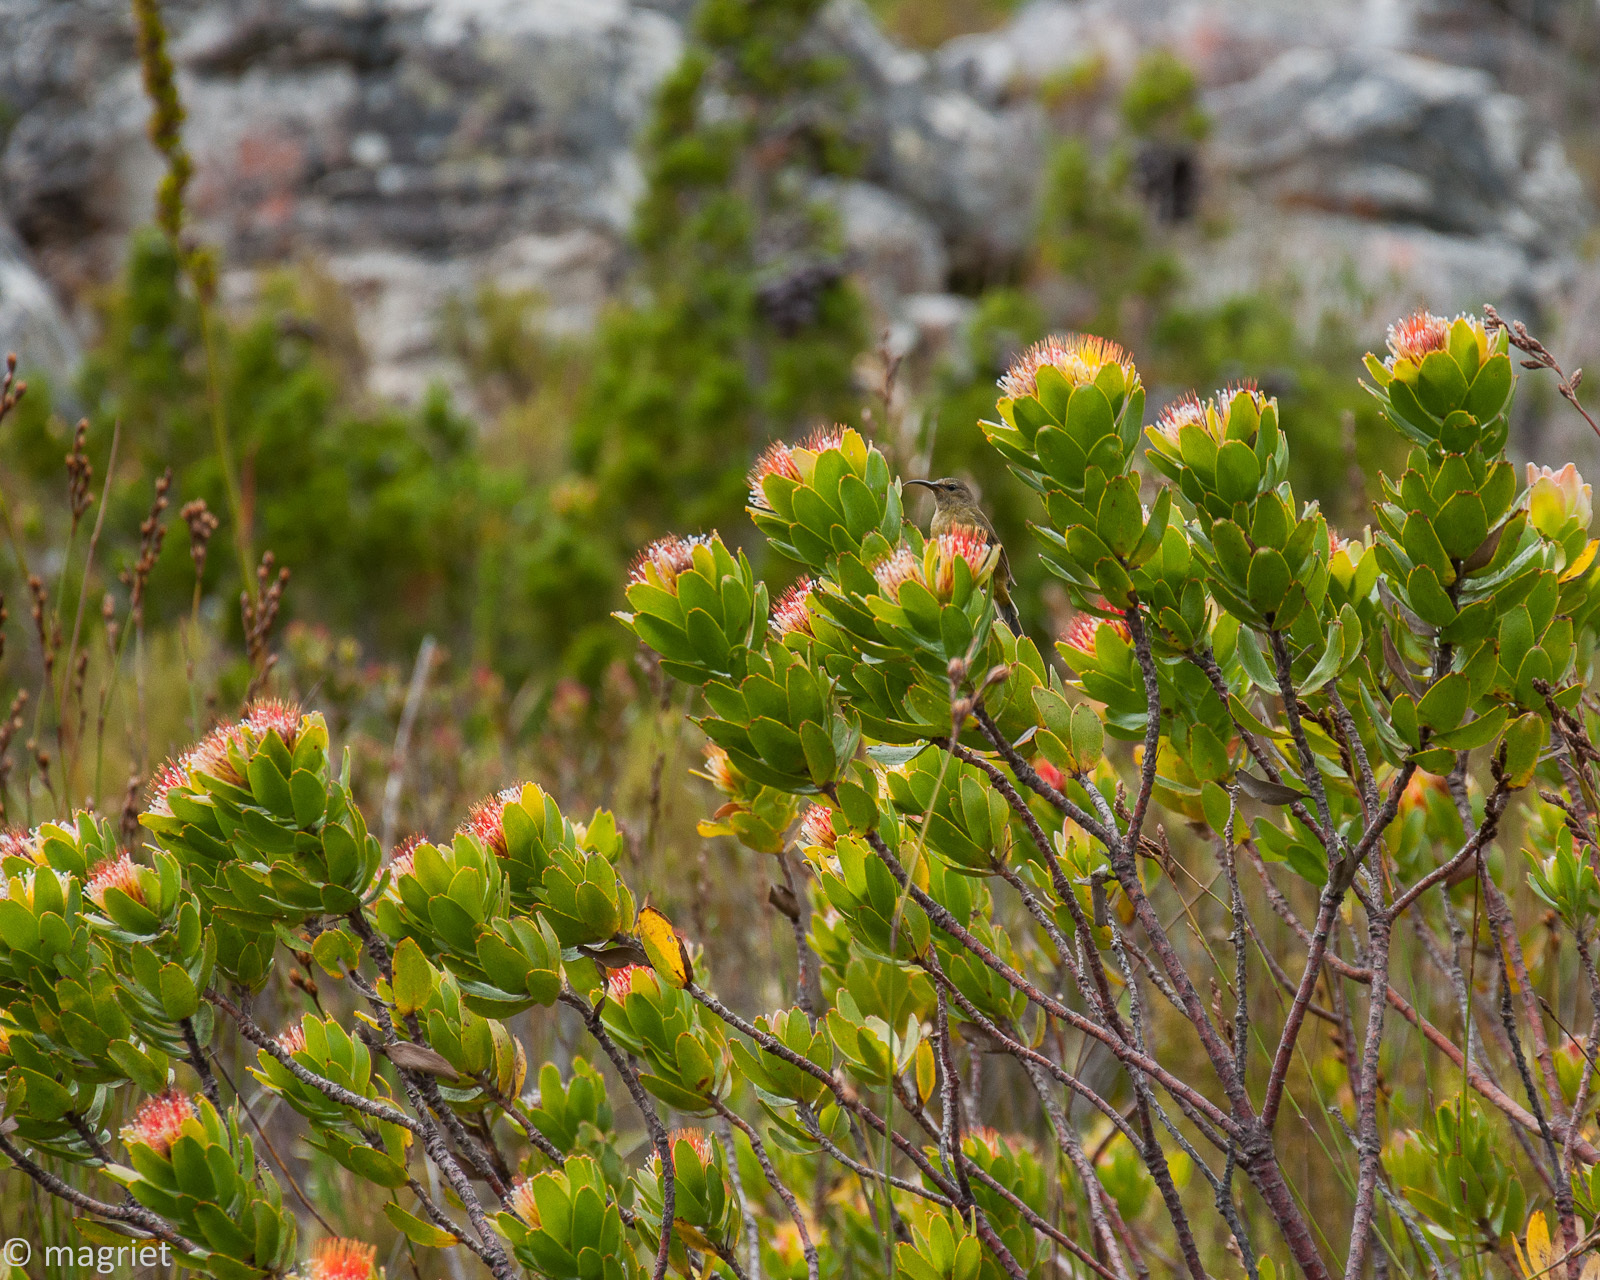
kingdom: Plantae
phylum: Tracheophyta
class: Magnoliopsida
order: Proteales
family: Proteaceae
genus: Leucospermum
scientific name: Leucospermum oleifolium
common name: Matches
